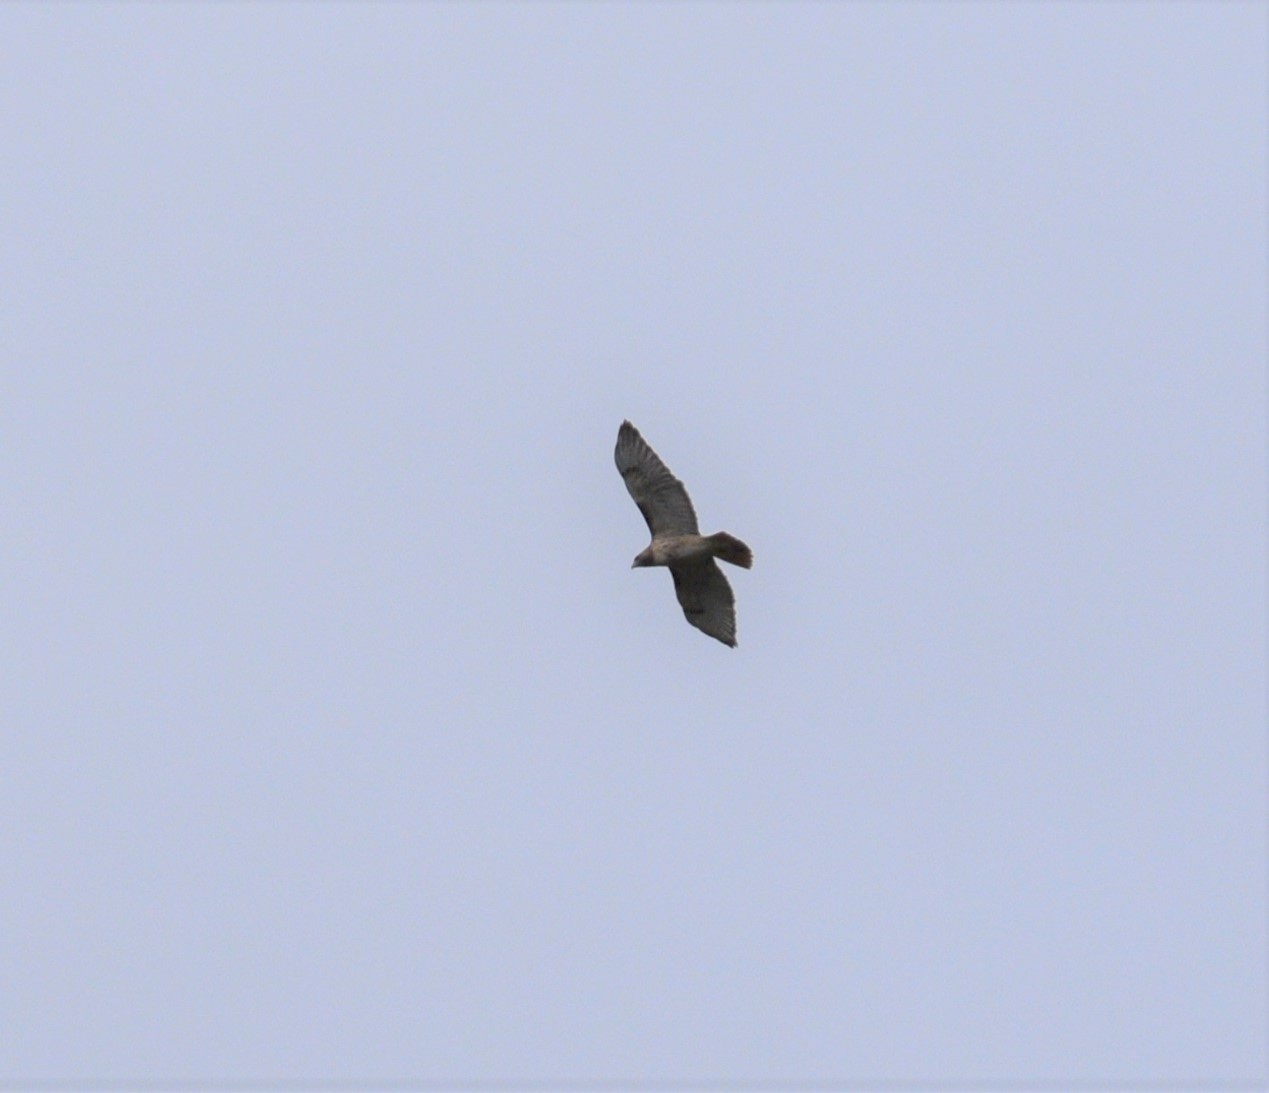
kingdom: Animalia
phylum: Chordata
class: Aves
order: Accipitriformes
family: Accipitridae
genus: Buteo
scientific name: Buteo jamaicensis
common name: Red-tailed hawk
